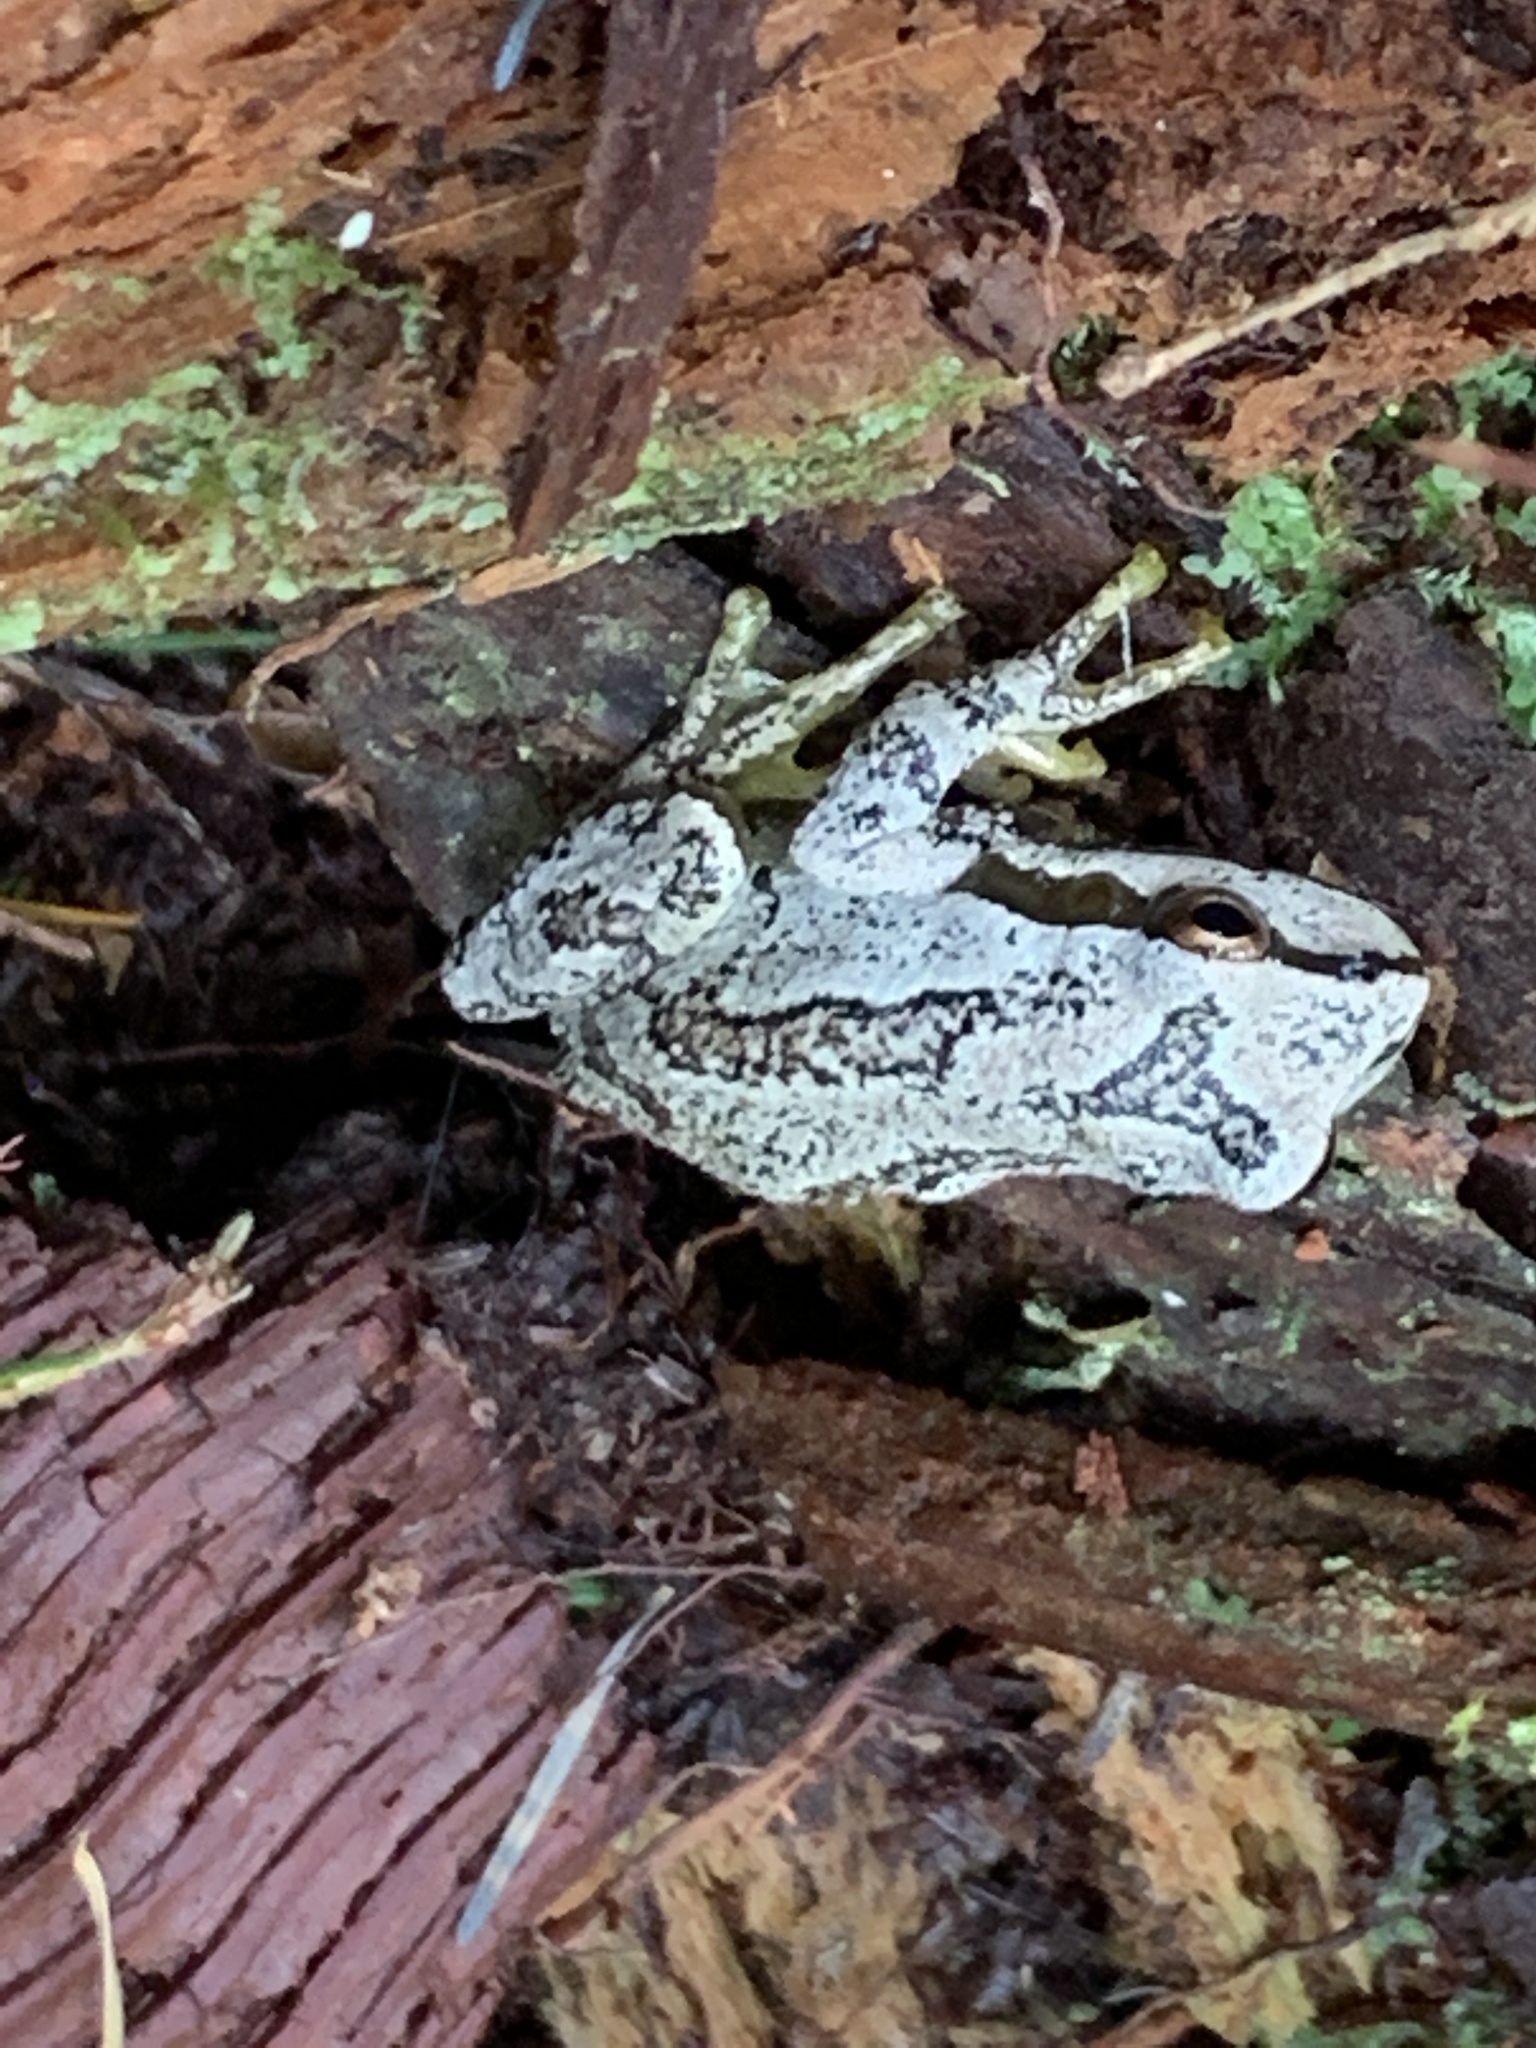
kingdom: Animalia
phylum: Chordata
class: Amphibia
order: Anura
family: Hylidae
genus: Pseudacris
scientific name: Pseudacris regilla
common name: Pacific chorus frog
